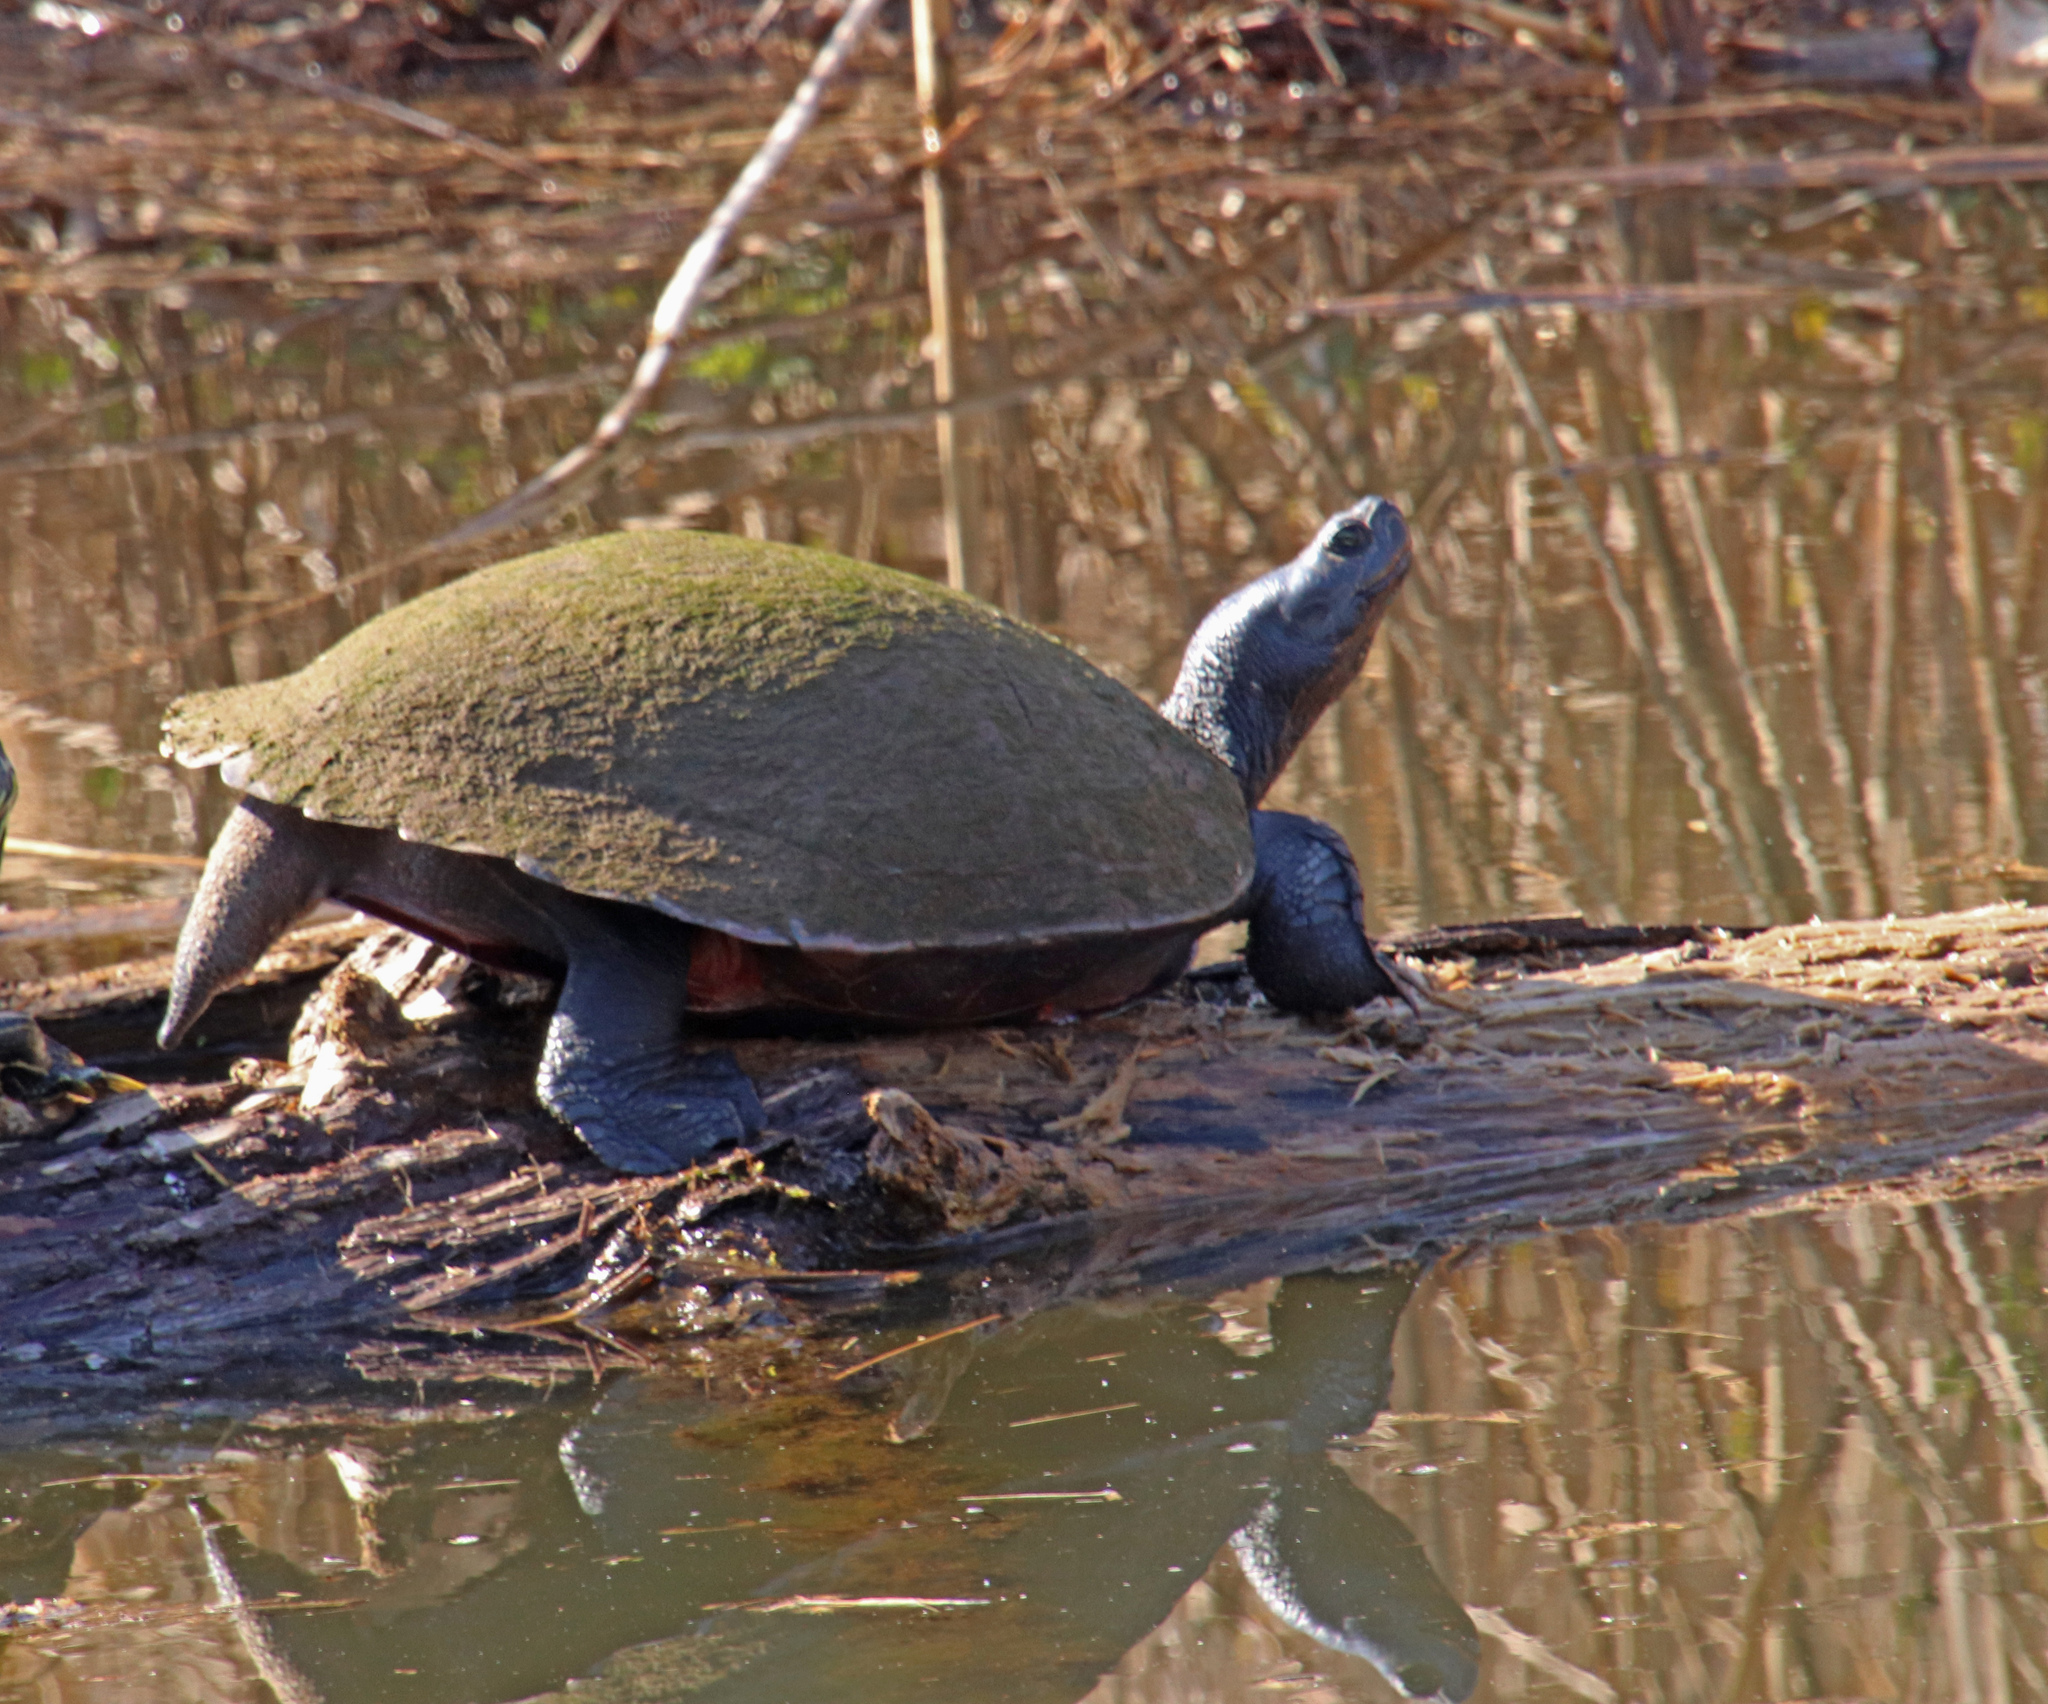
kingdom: Animalia
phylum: Chordata
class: Testudines
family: Emydidae
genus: Pseudemys
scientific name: Pseudemys rubriventris
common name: American red-bellied turtle
